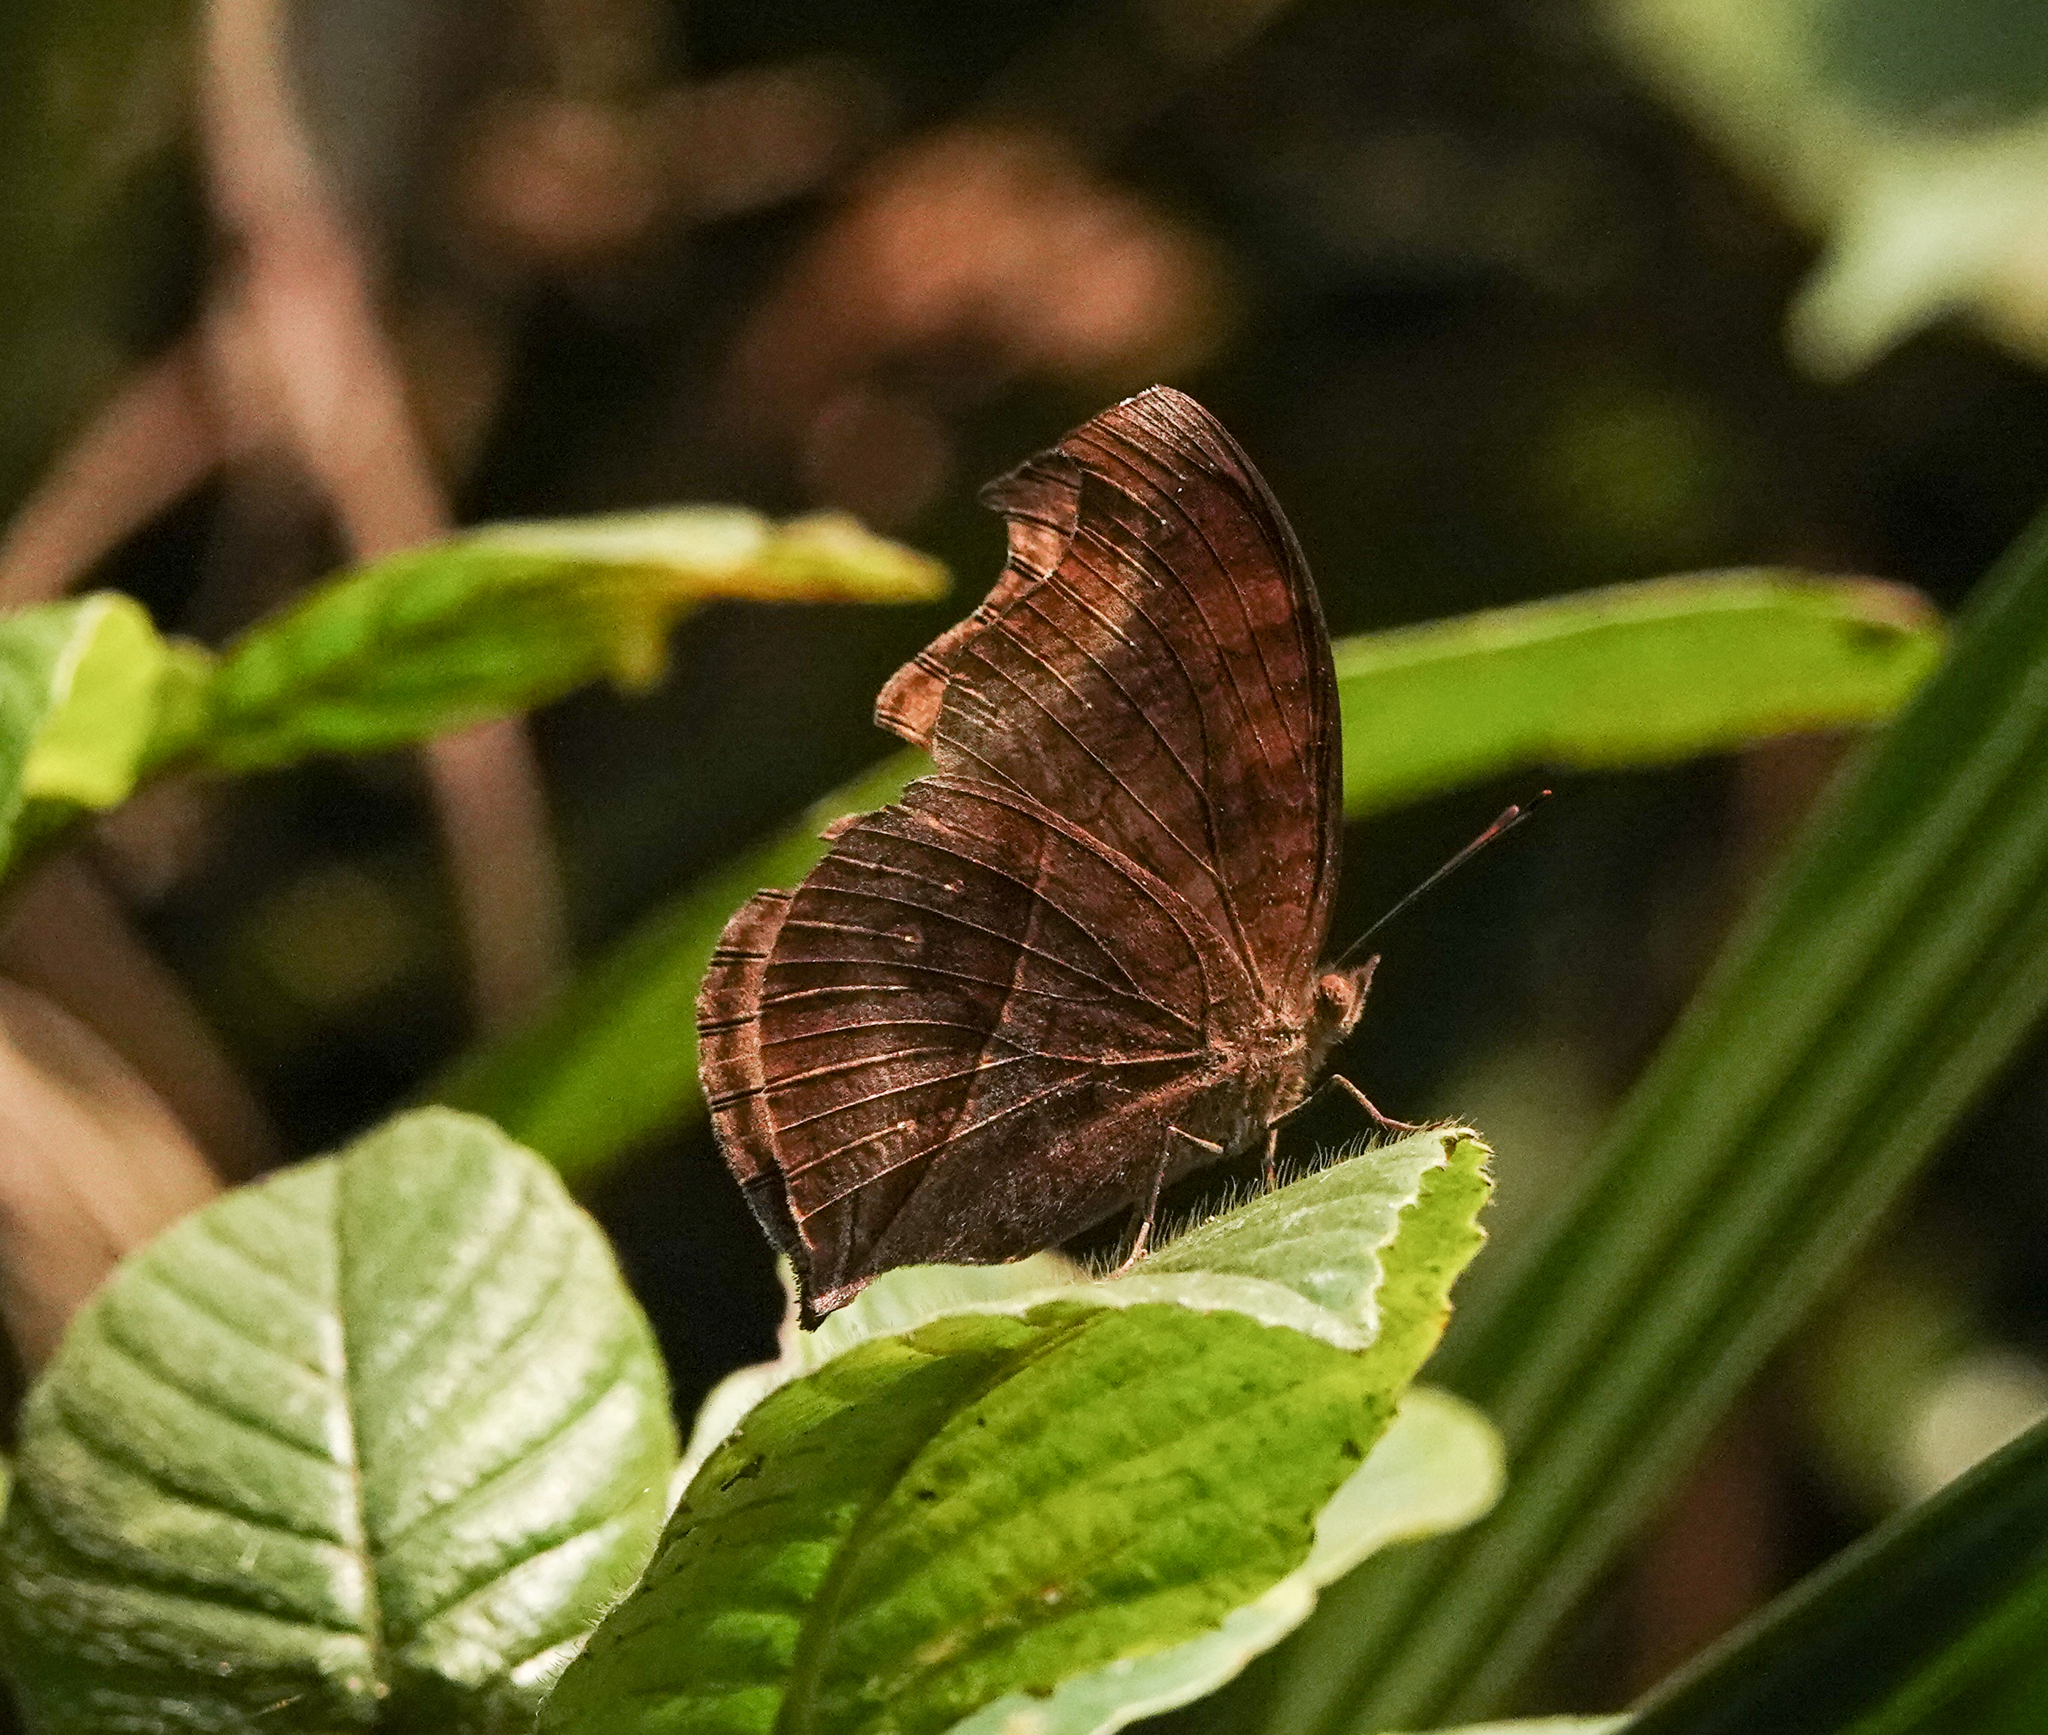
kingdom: Animalia
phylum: Arthropoda
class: Insecta
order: Lepidoptera
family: Nymphalidae
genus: Junonia
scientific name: Junonia iphita
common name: Chocolate pansy
